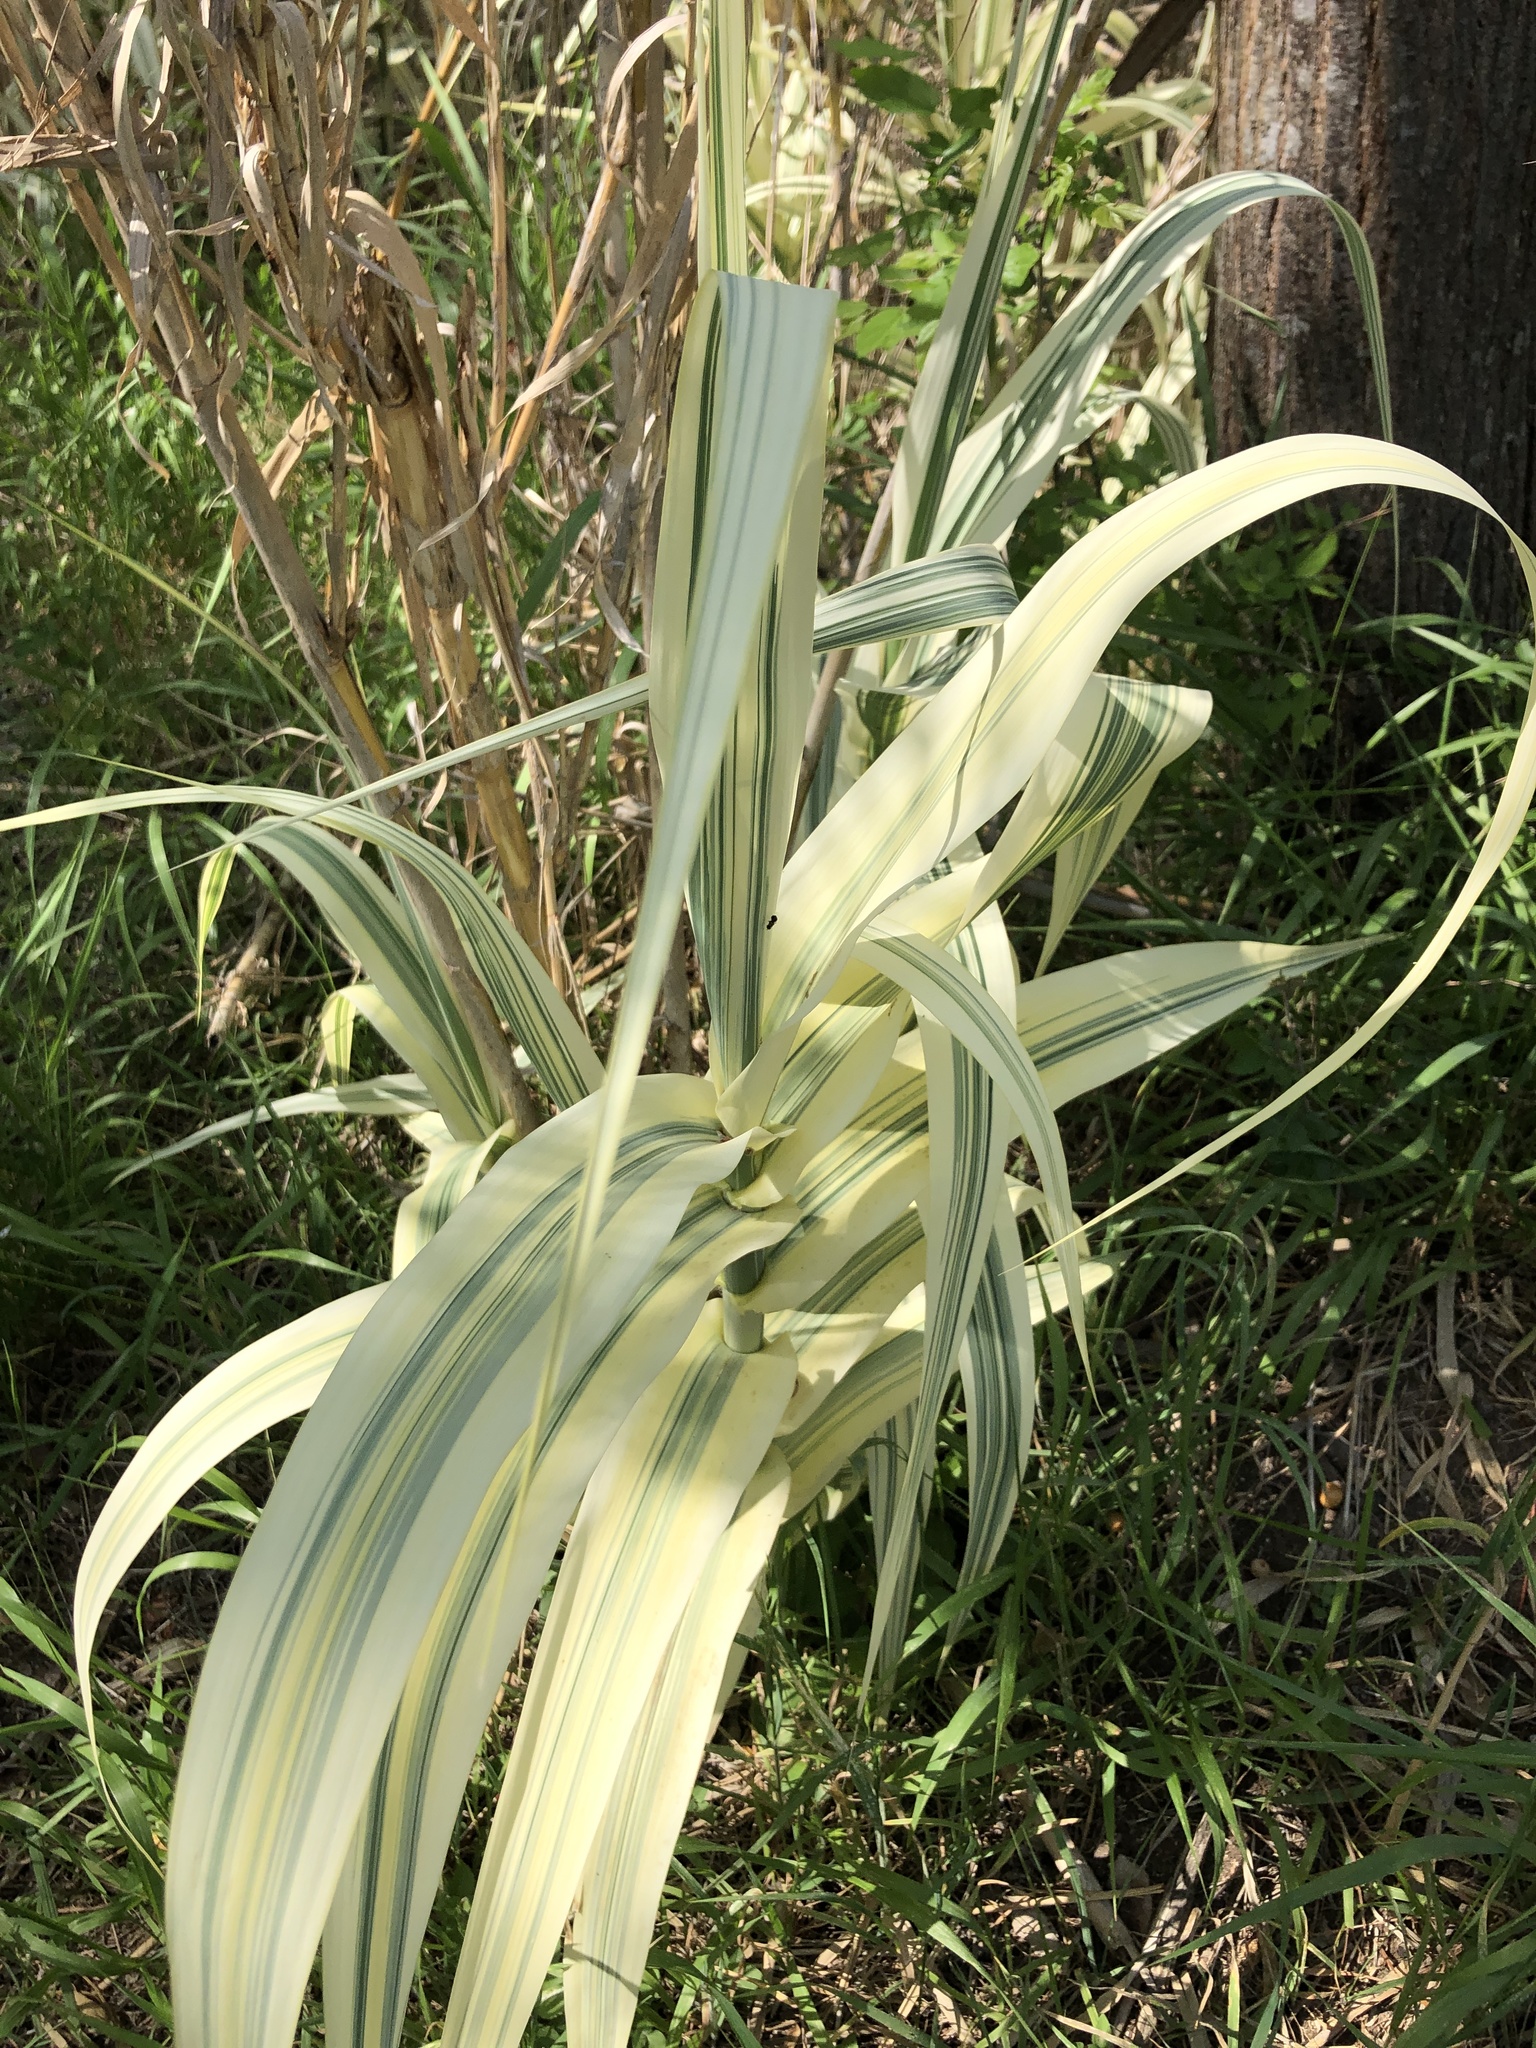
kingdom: Plantae
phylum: Tracheophyta
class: Liliopsida
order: Poales
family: Poaceae
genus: Arundo
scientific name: Arundo donax
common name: Giant reed
